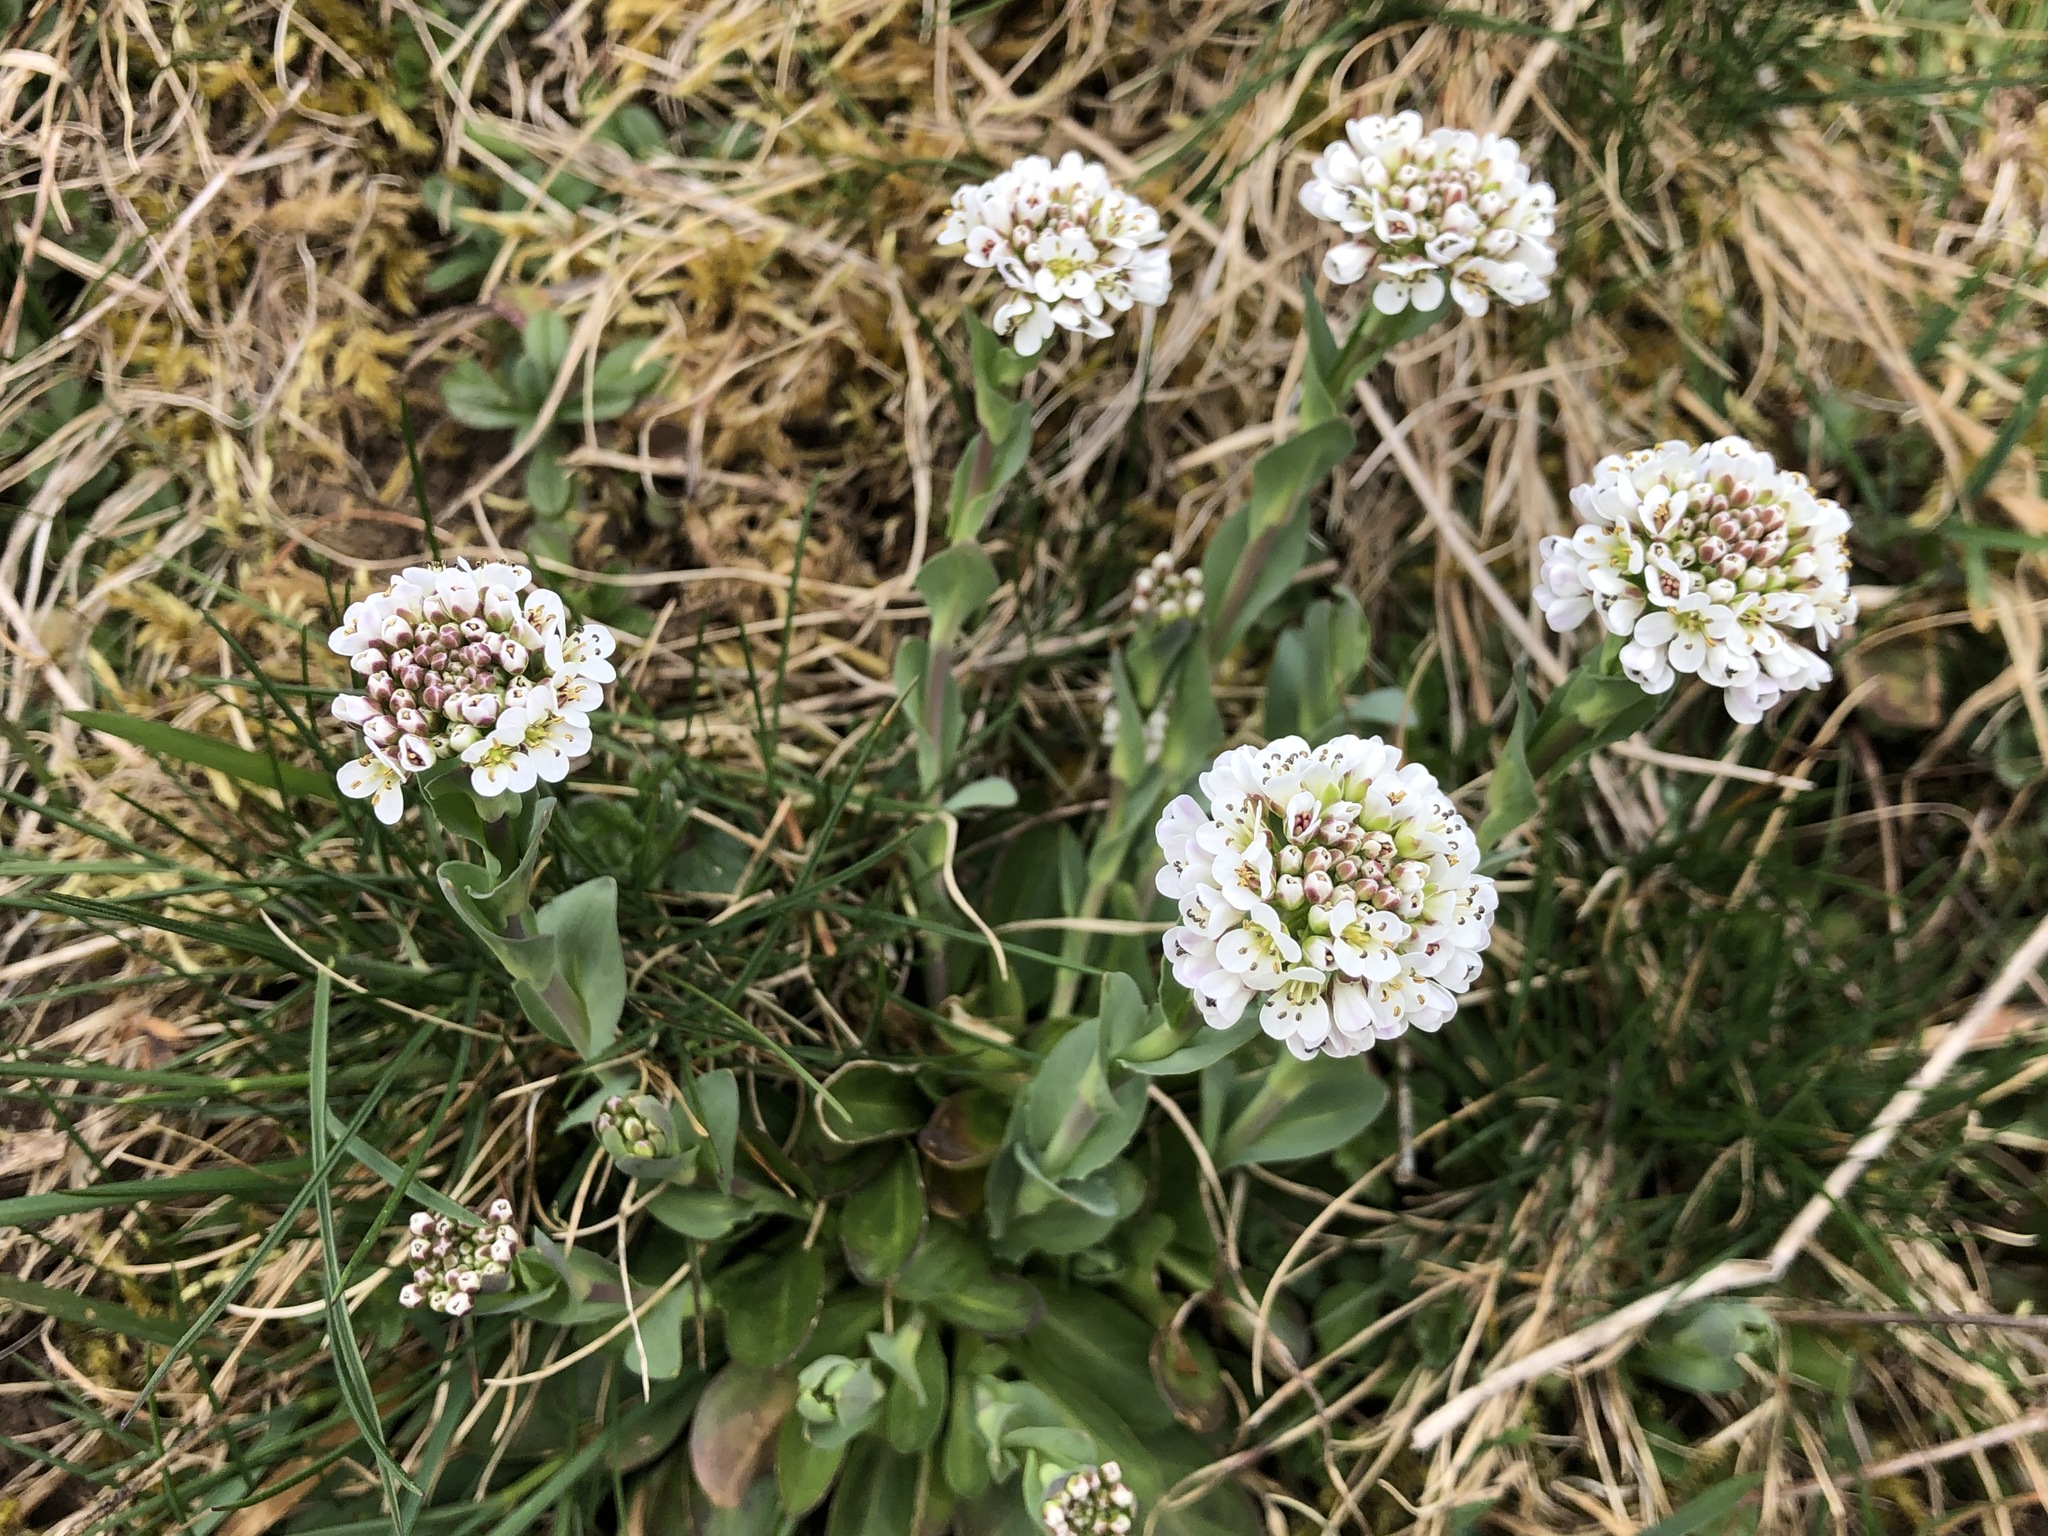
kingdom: Plantae
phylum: Tracheophyta
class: Magnoliopsida
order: Brassicales
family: Brassicaceae
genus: Noccaea
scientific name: Noccaea caerulescens
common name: Alpine pennycress
